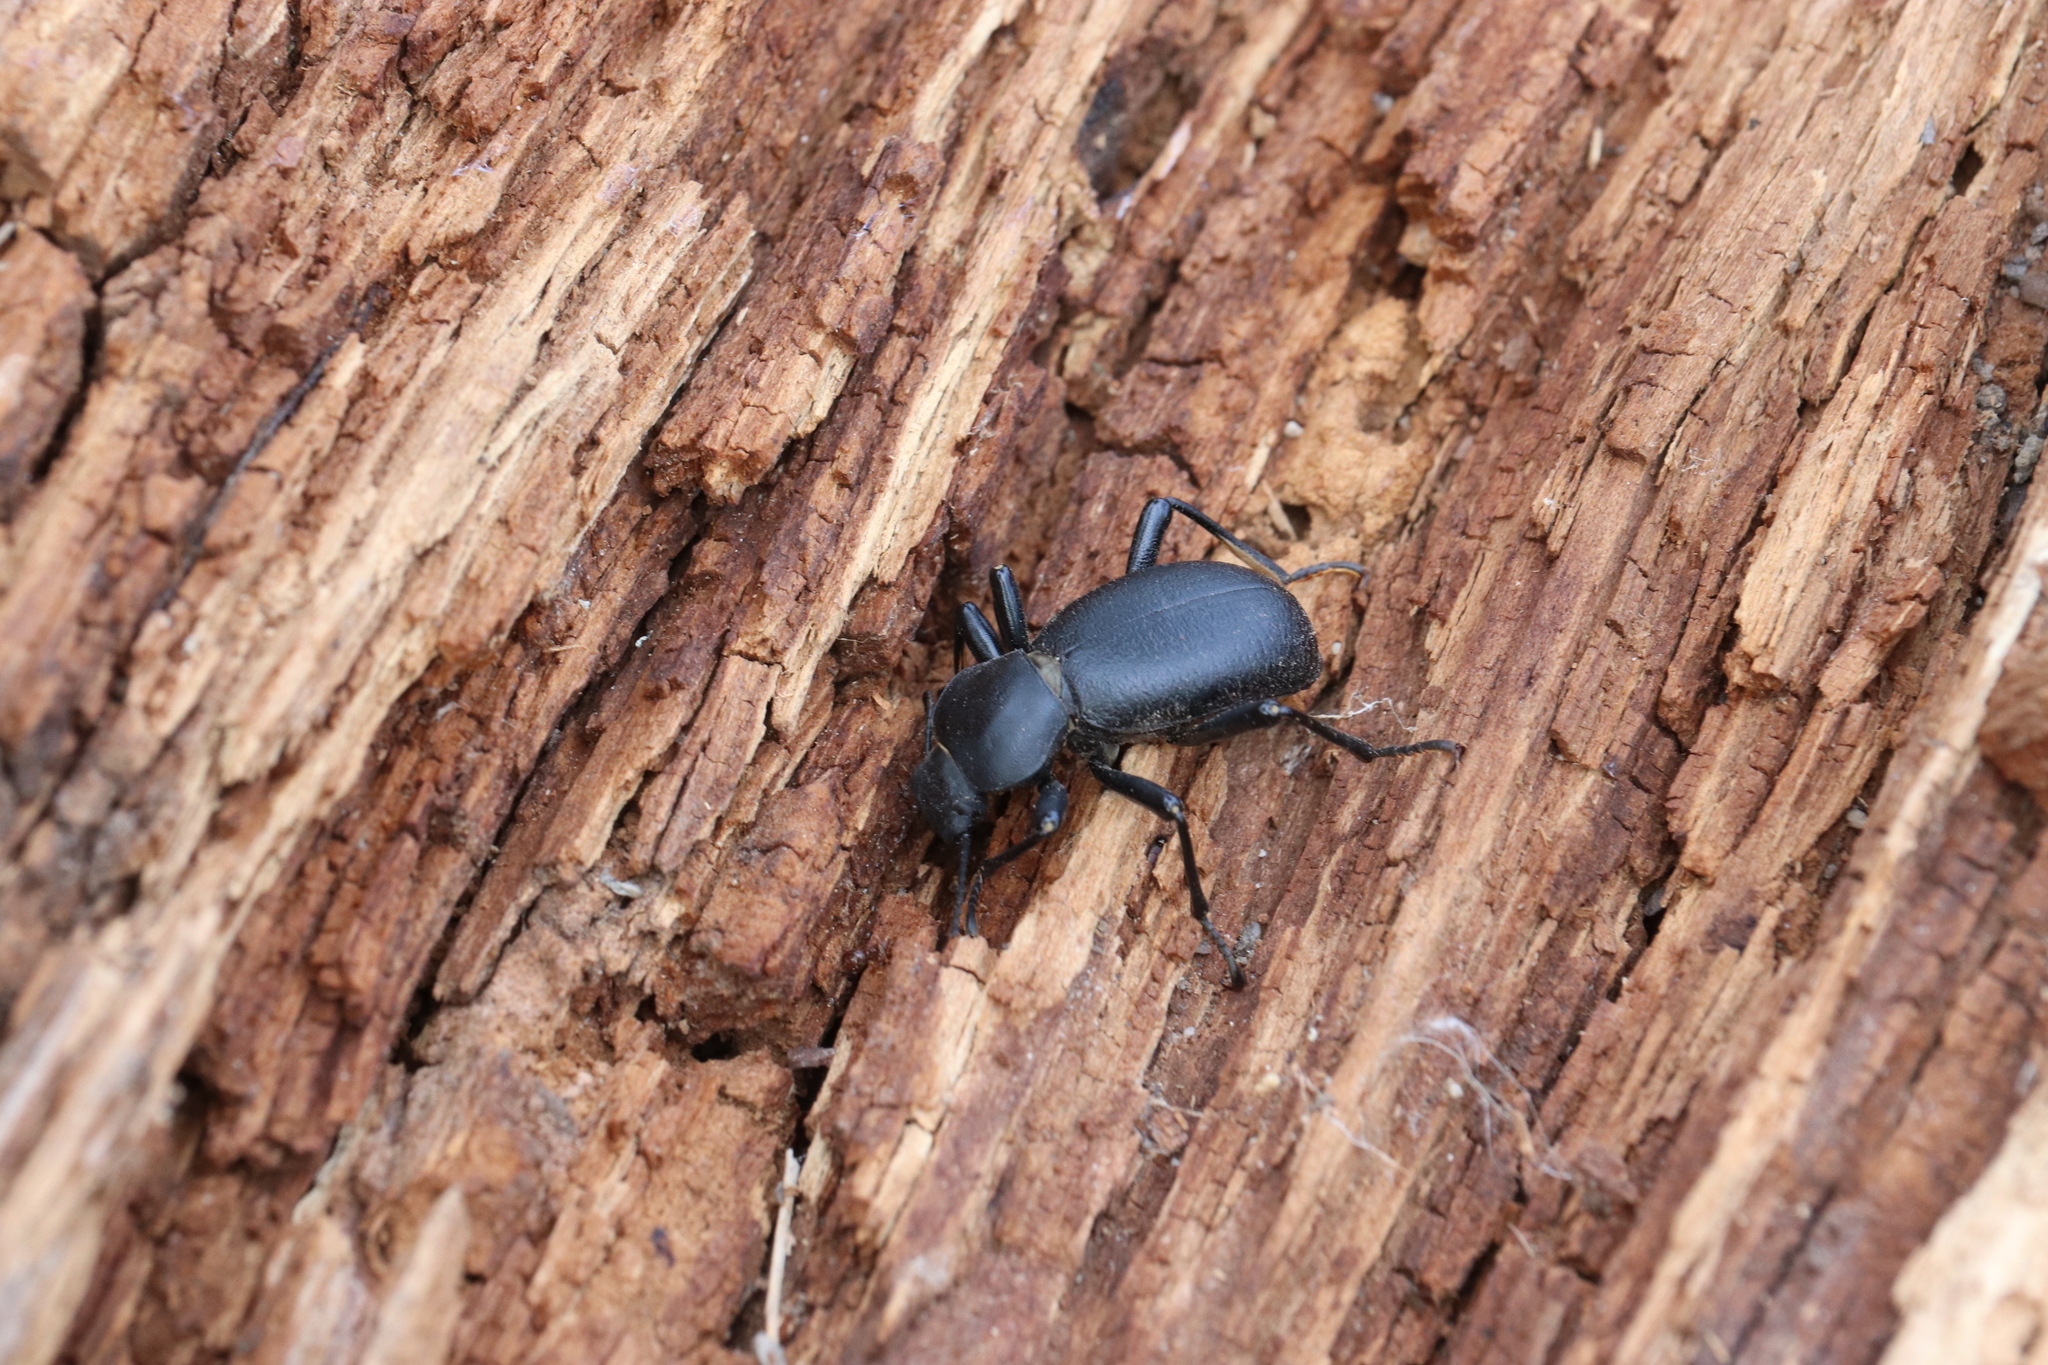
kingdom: Animalia
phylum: Arthropoda
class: Insecta
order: Coleoptera
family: Tenebrionidae
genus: Coelocnemis
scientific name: Coelocnemis dilaticollis
